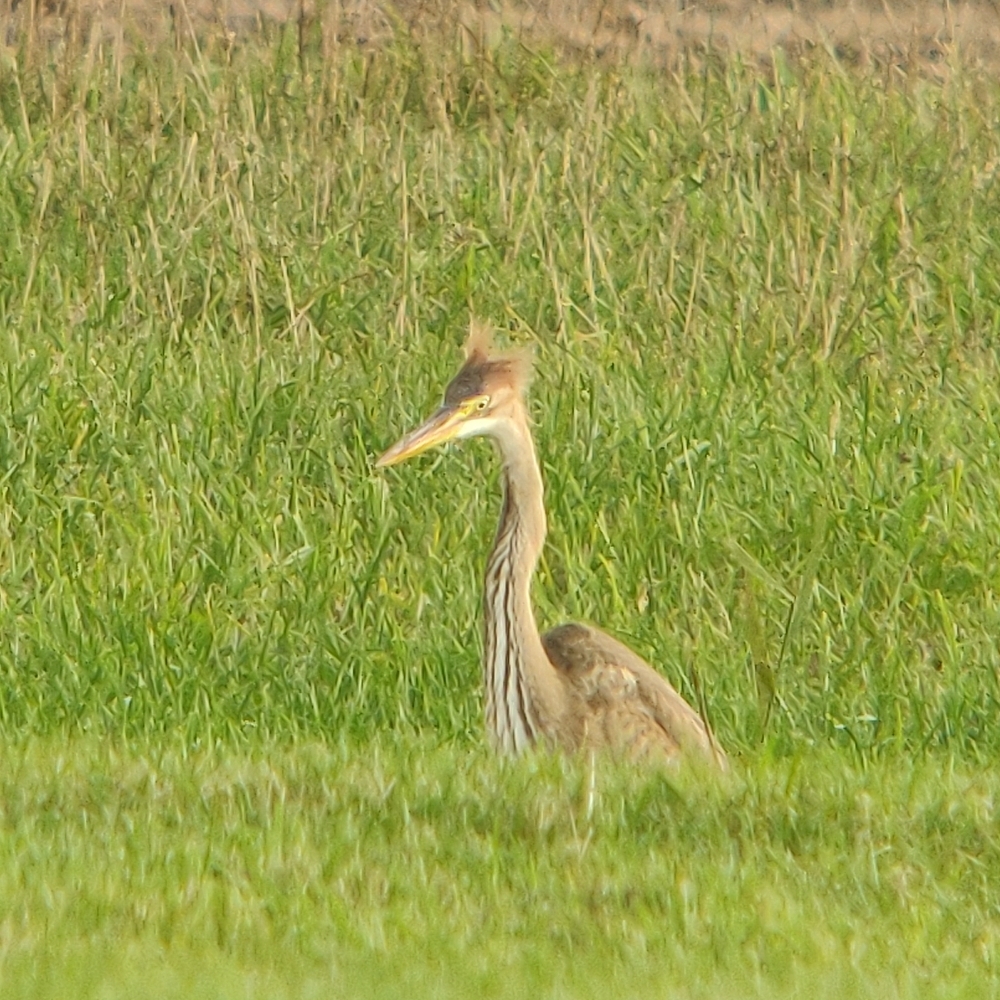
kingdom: Animalia
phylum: Chordata
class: Aves
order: Pelecaniformes
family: Ardeidae
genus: Ardea
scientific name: Ardea purpurea
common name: Purple heron
